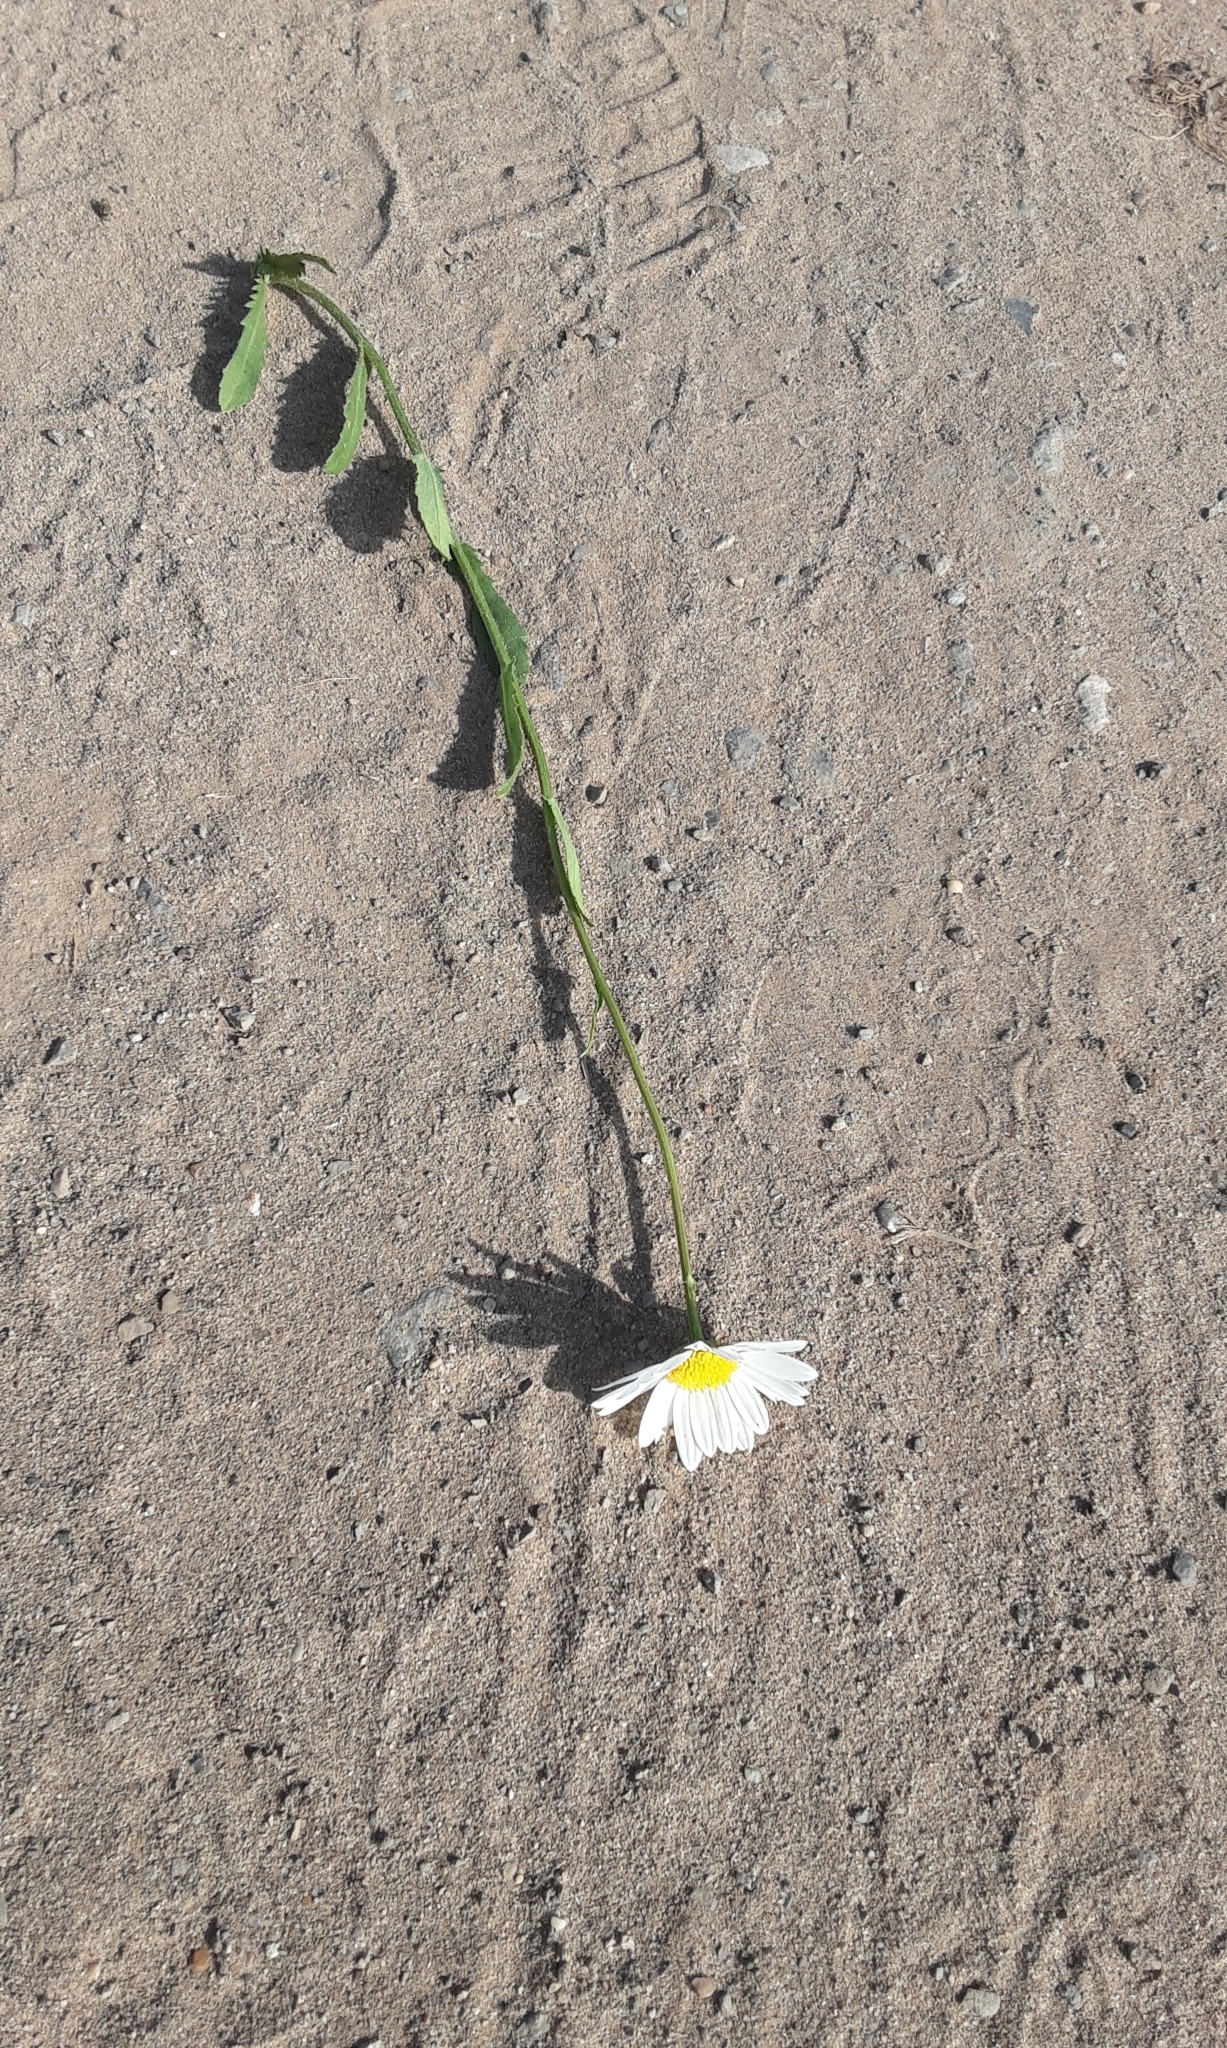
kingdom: Plantae
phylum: Tracheophyta
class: Magnoliopsida
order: Asterales
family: Asteraceae
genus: Leucanthemum
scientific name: Leucanthemum vulgare
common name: Oxeye daisy
